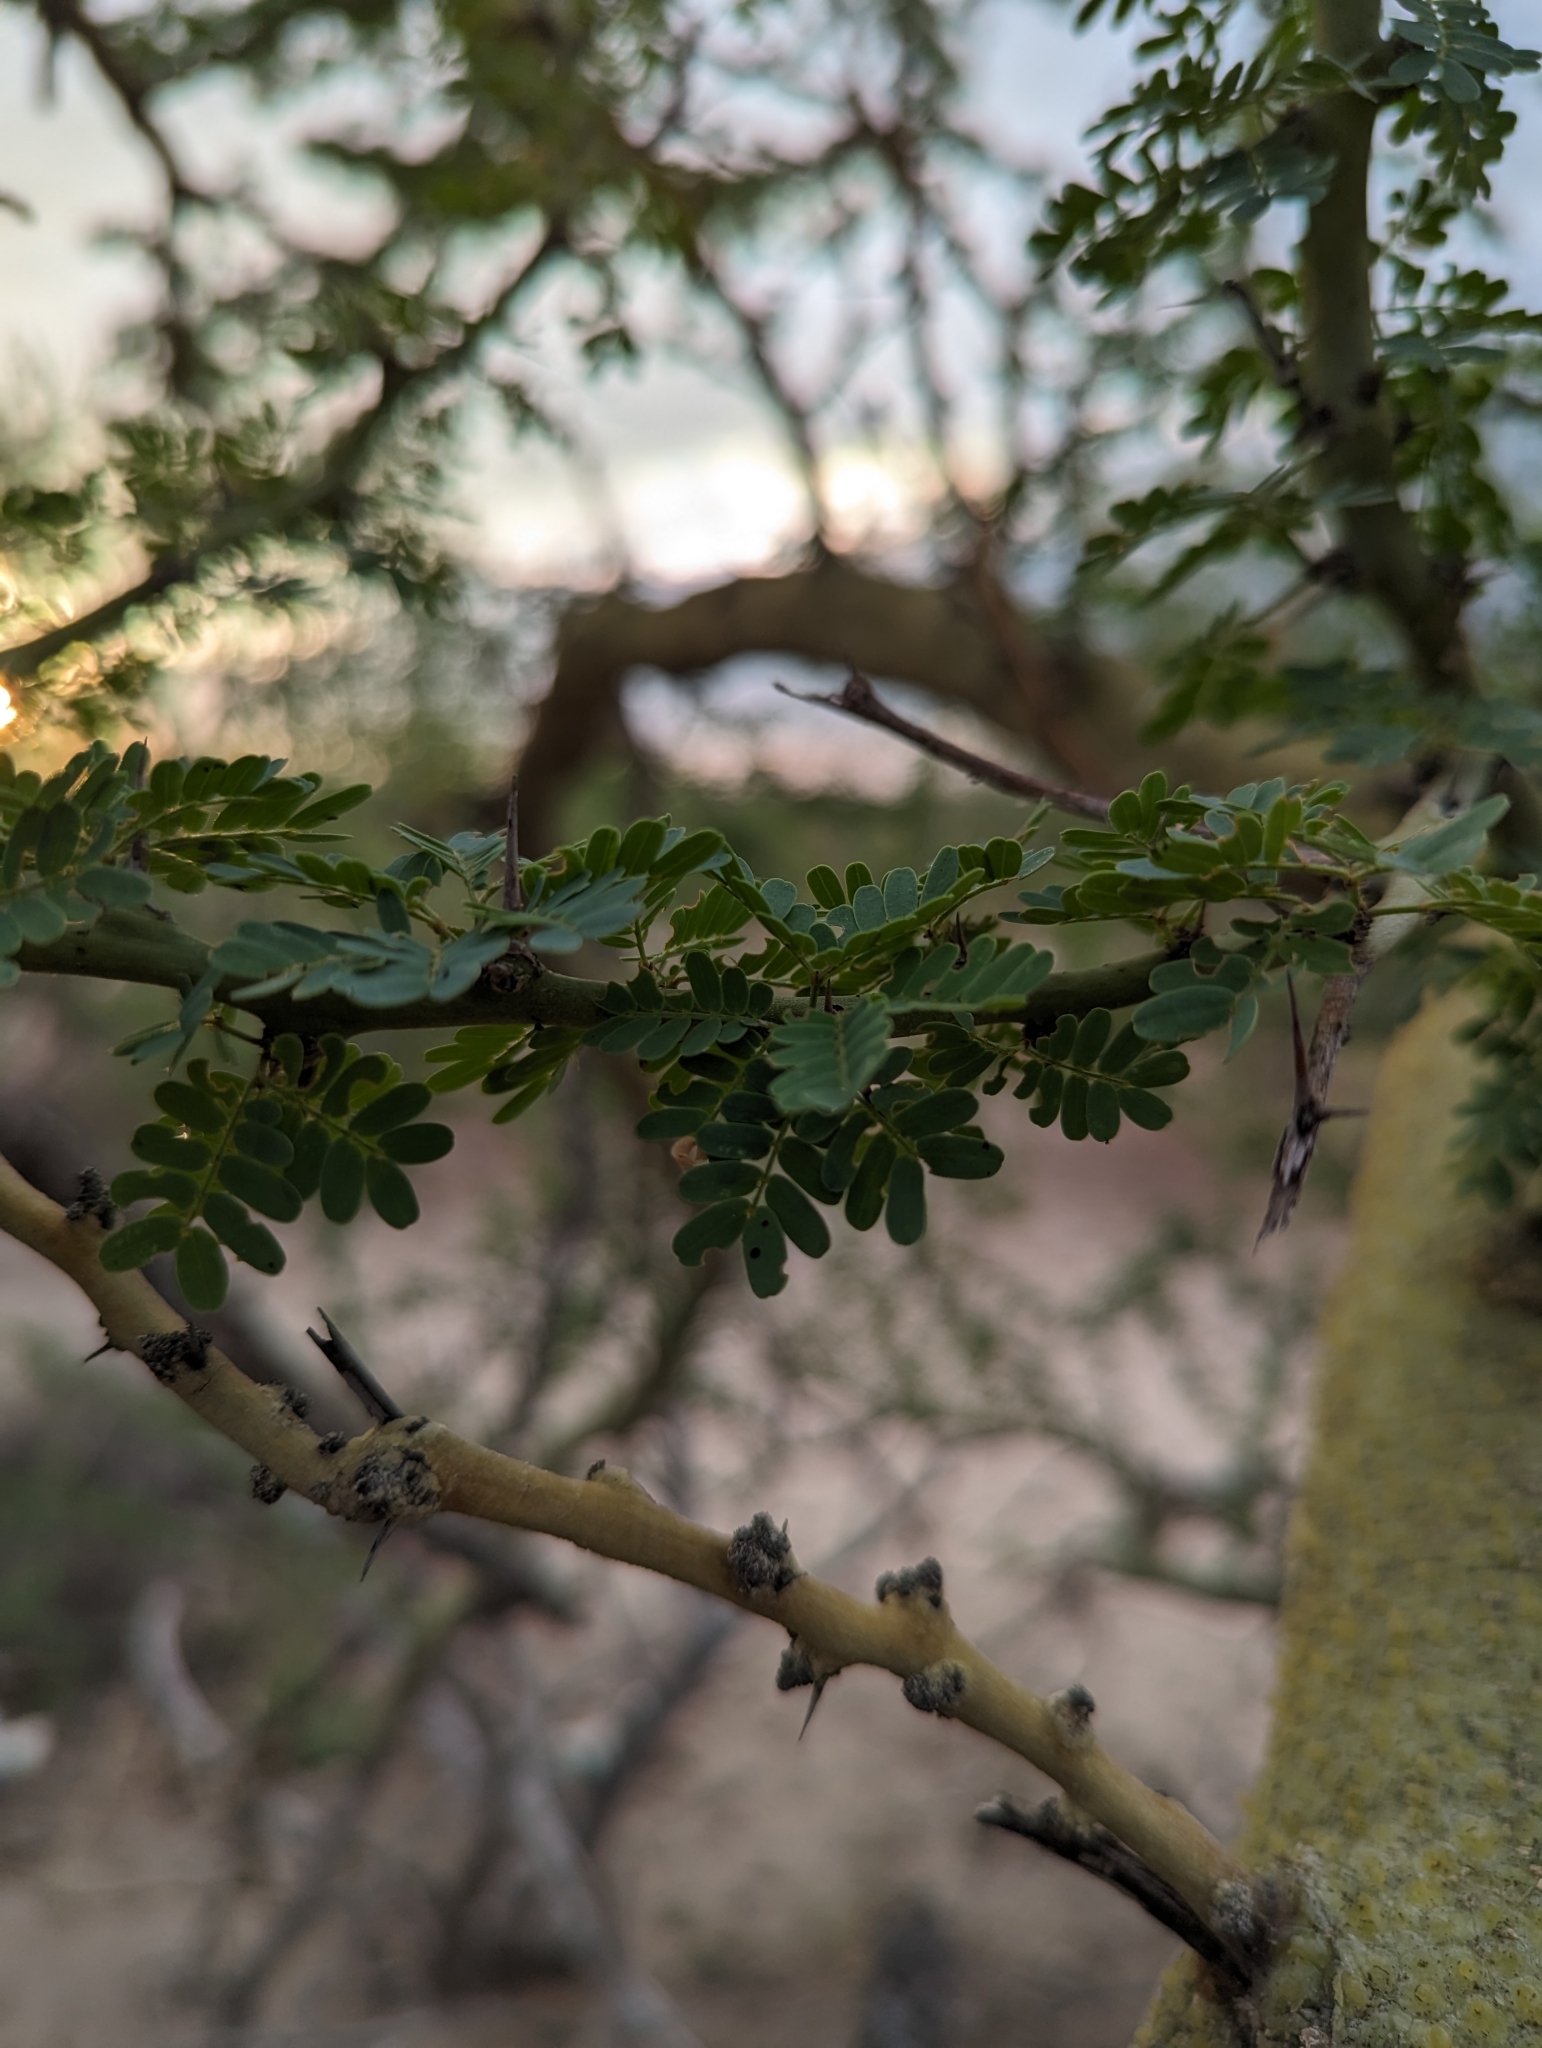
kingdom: Plantae
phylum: Tracheophyta
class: Magnoliopsida
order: Fabales
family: Fabaceae
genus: Parkinsonia
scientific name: Parkinsonia praecox
